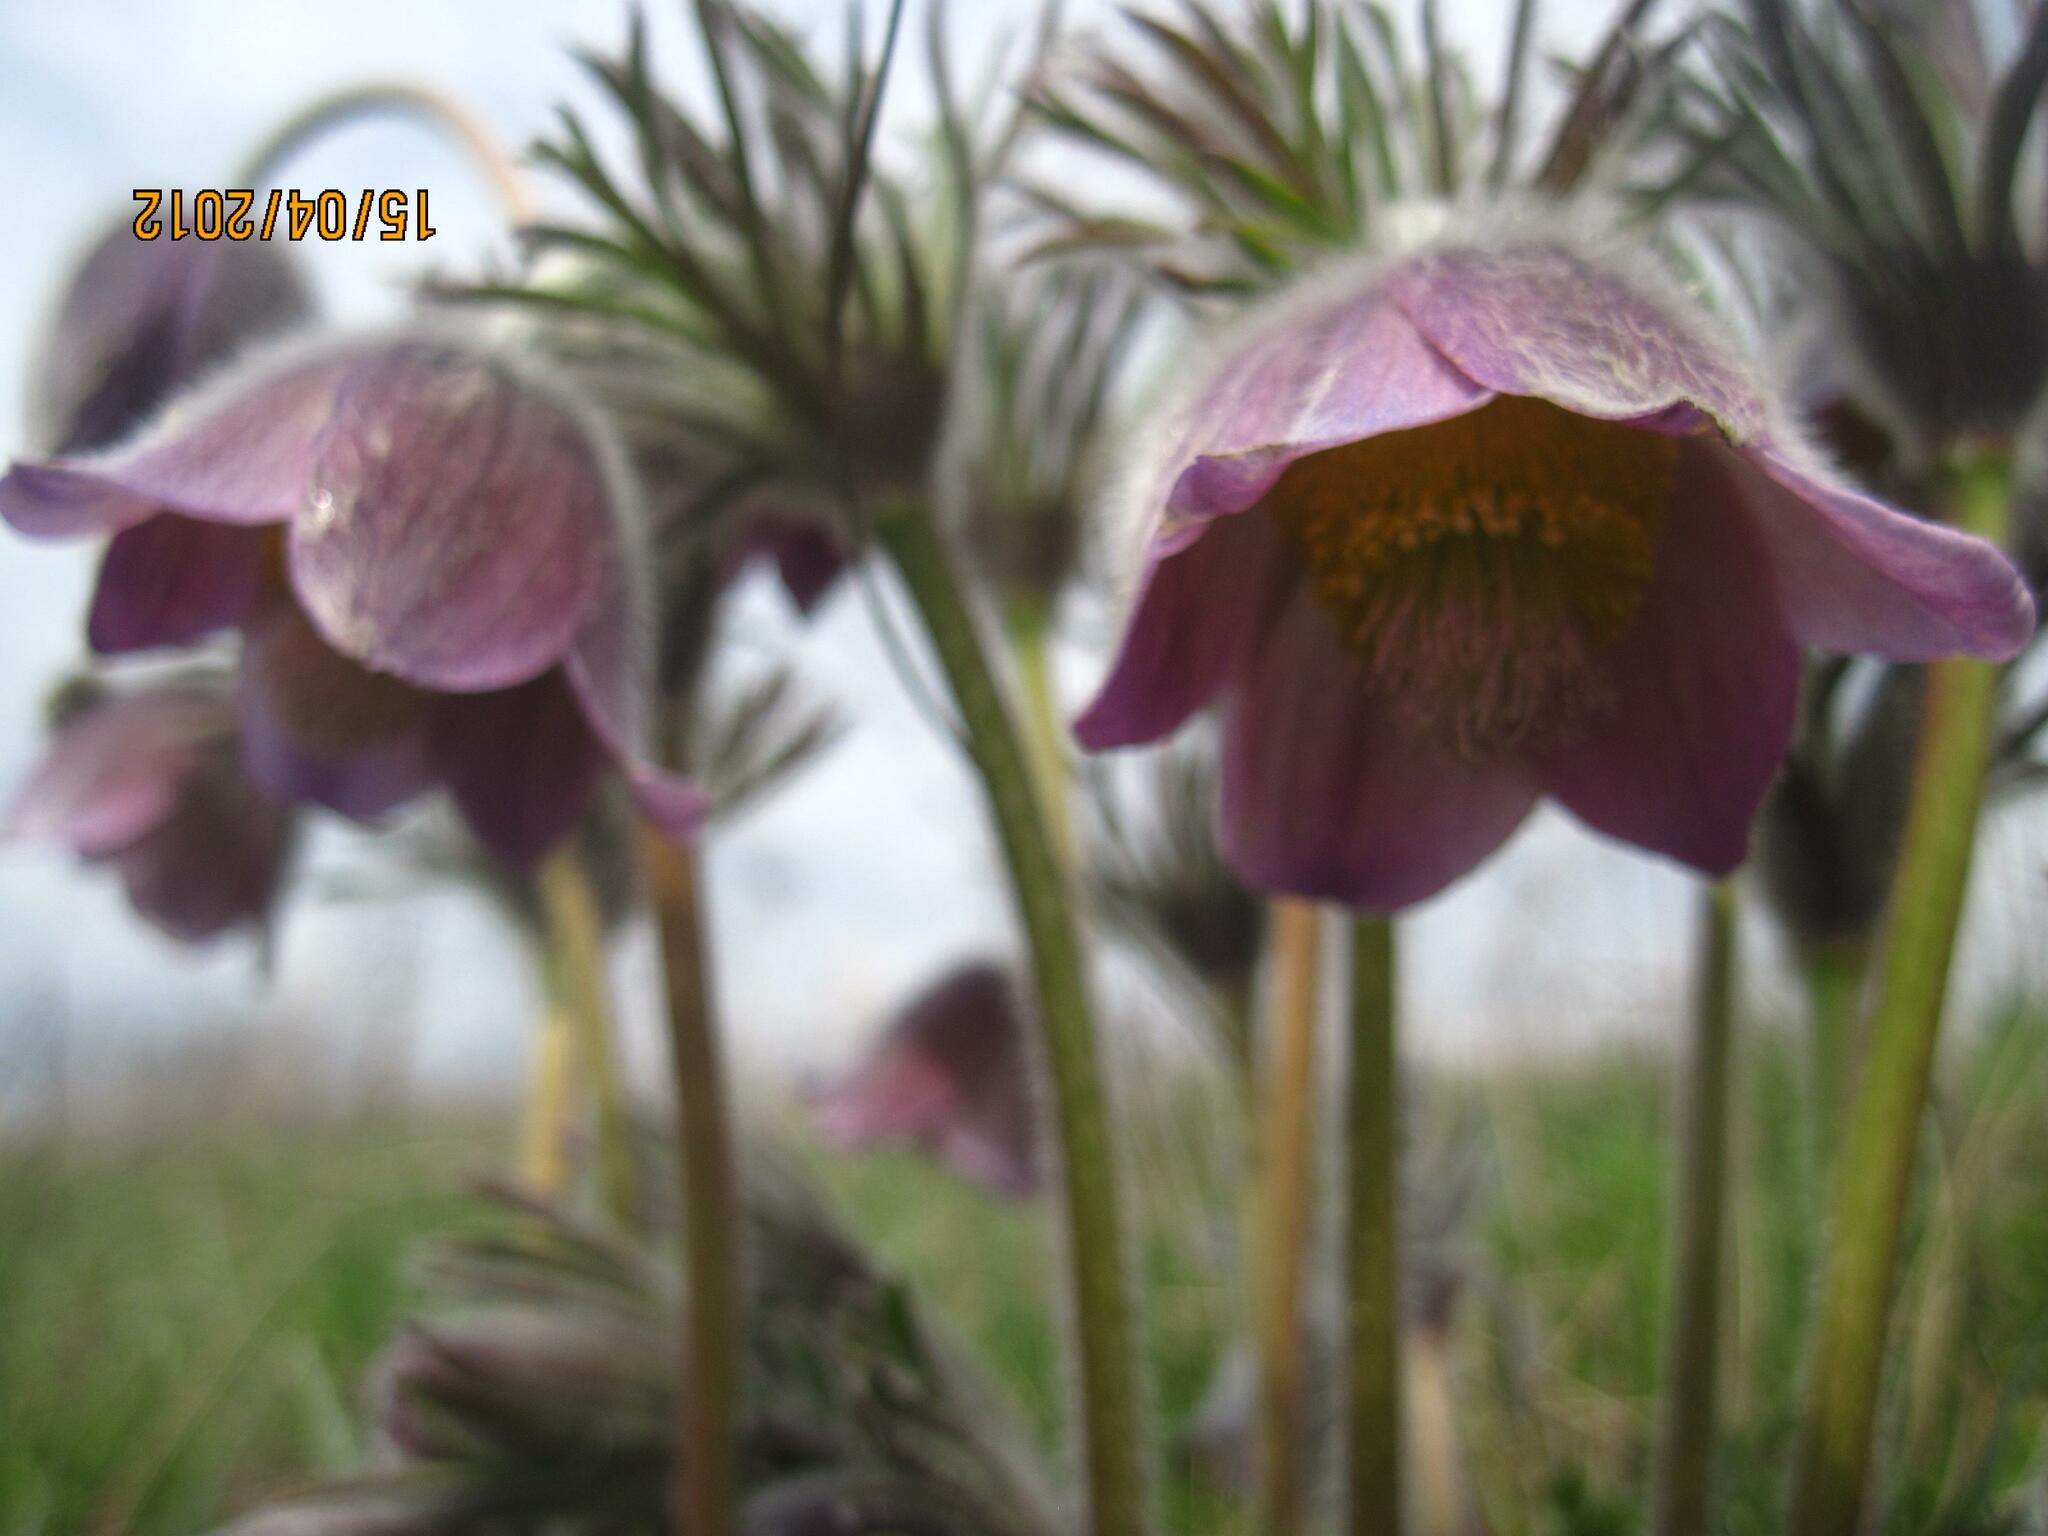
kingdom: Plantae
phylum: Tracheophyta
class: Magnoliopsida
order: Ranunculales
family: Ranunculaceae
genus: Pulsatilla
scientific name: Pulsatilla pratensis
